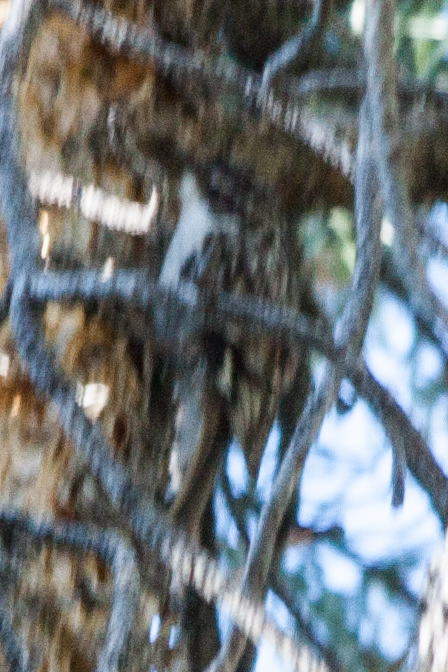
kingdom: Animalia
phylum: Chordata
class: Aves
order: Passeriformes
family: Certhiidae
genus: Certhia
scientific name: Certhia americana
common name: Brown creeper
